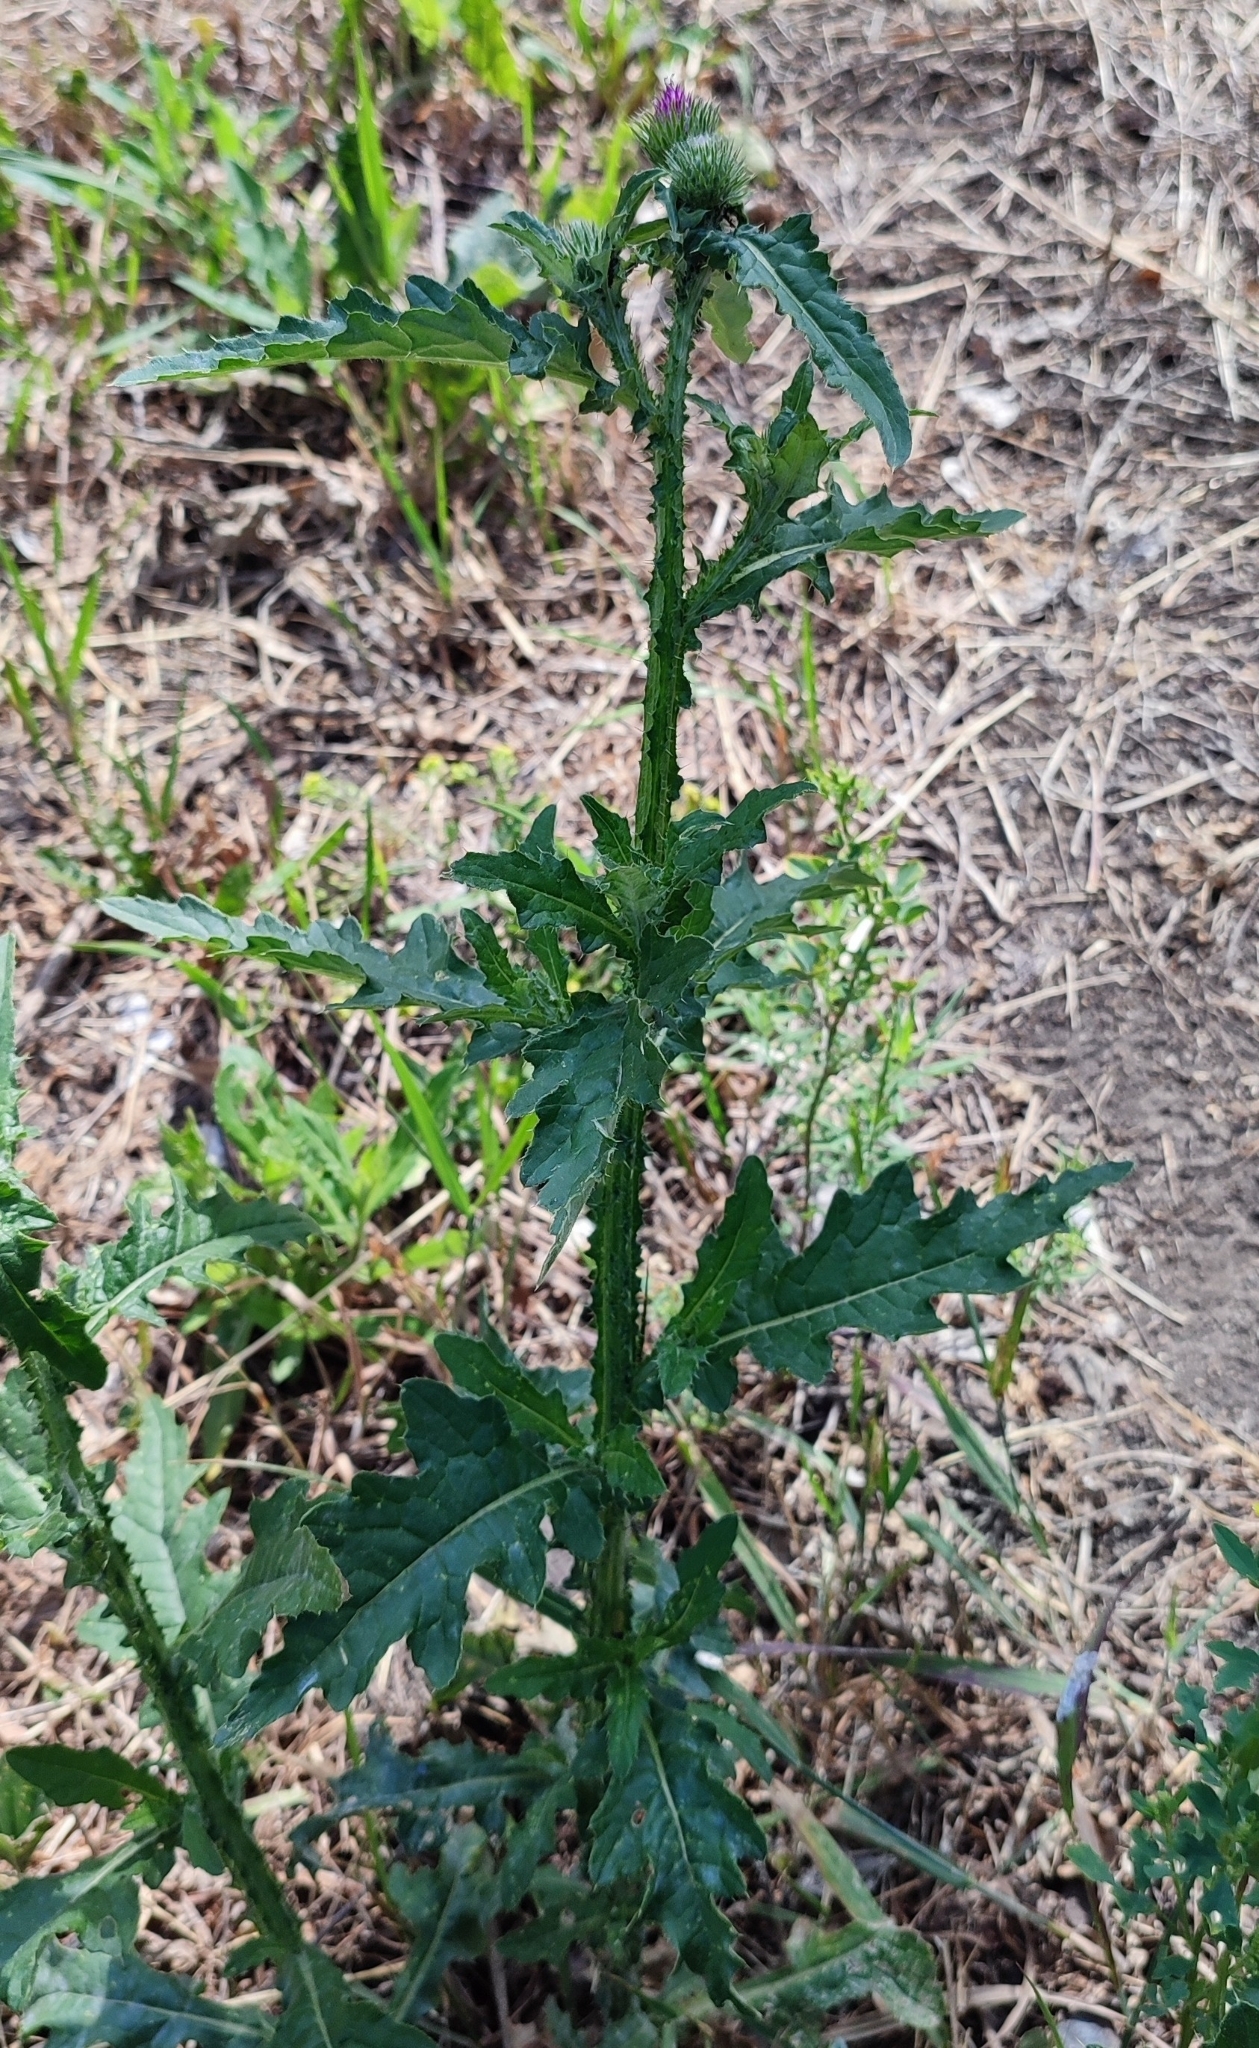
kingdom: Plantae
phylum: Tracheophyta
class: Magnoliopsida
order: Asterales
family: Asteraceae
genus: Carduus
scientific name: Carduus crispus
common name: Welted thistle
